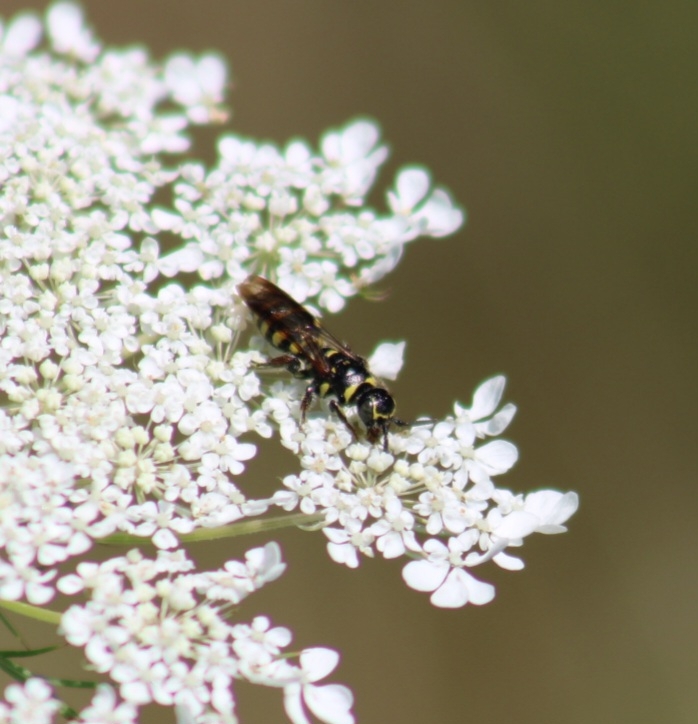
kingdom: Animalia
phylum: Arthropoda
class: Insecta
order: Hymenoptera
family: Tiphiidae
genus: Myzinum
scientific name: Myzinum maculatum
